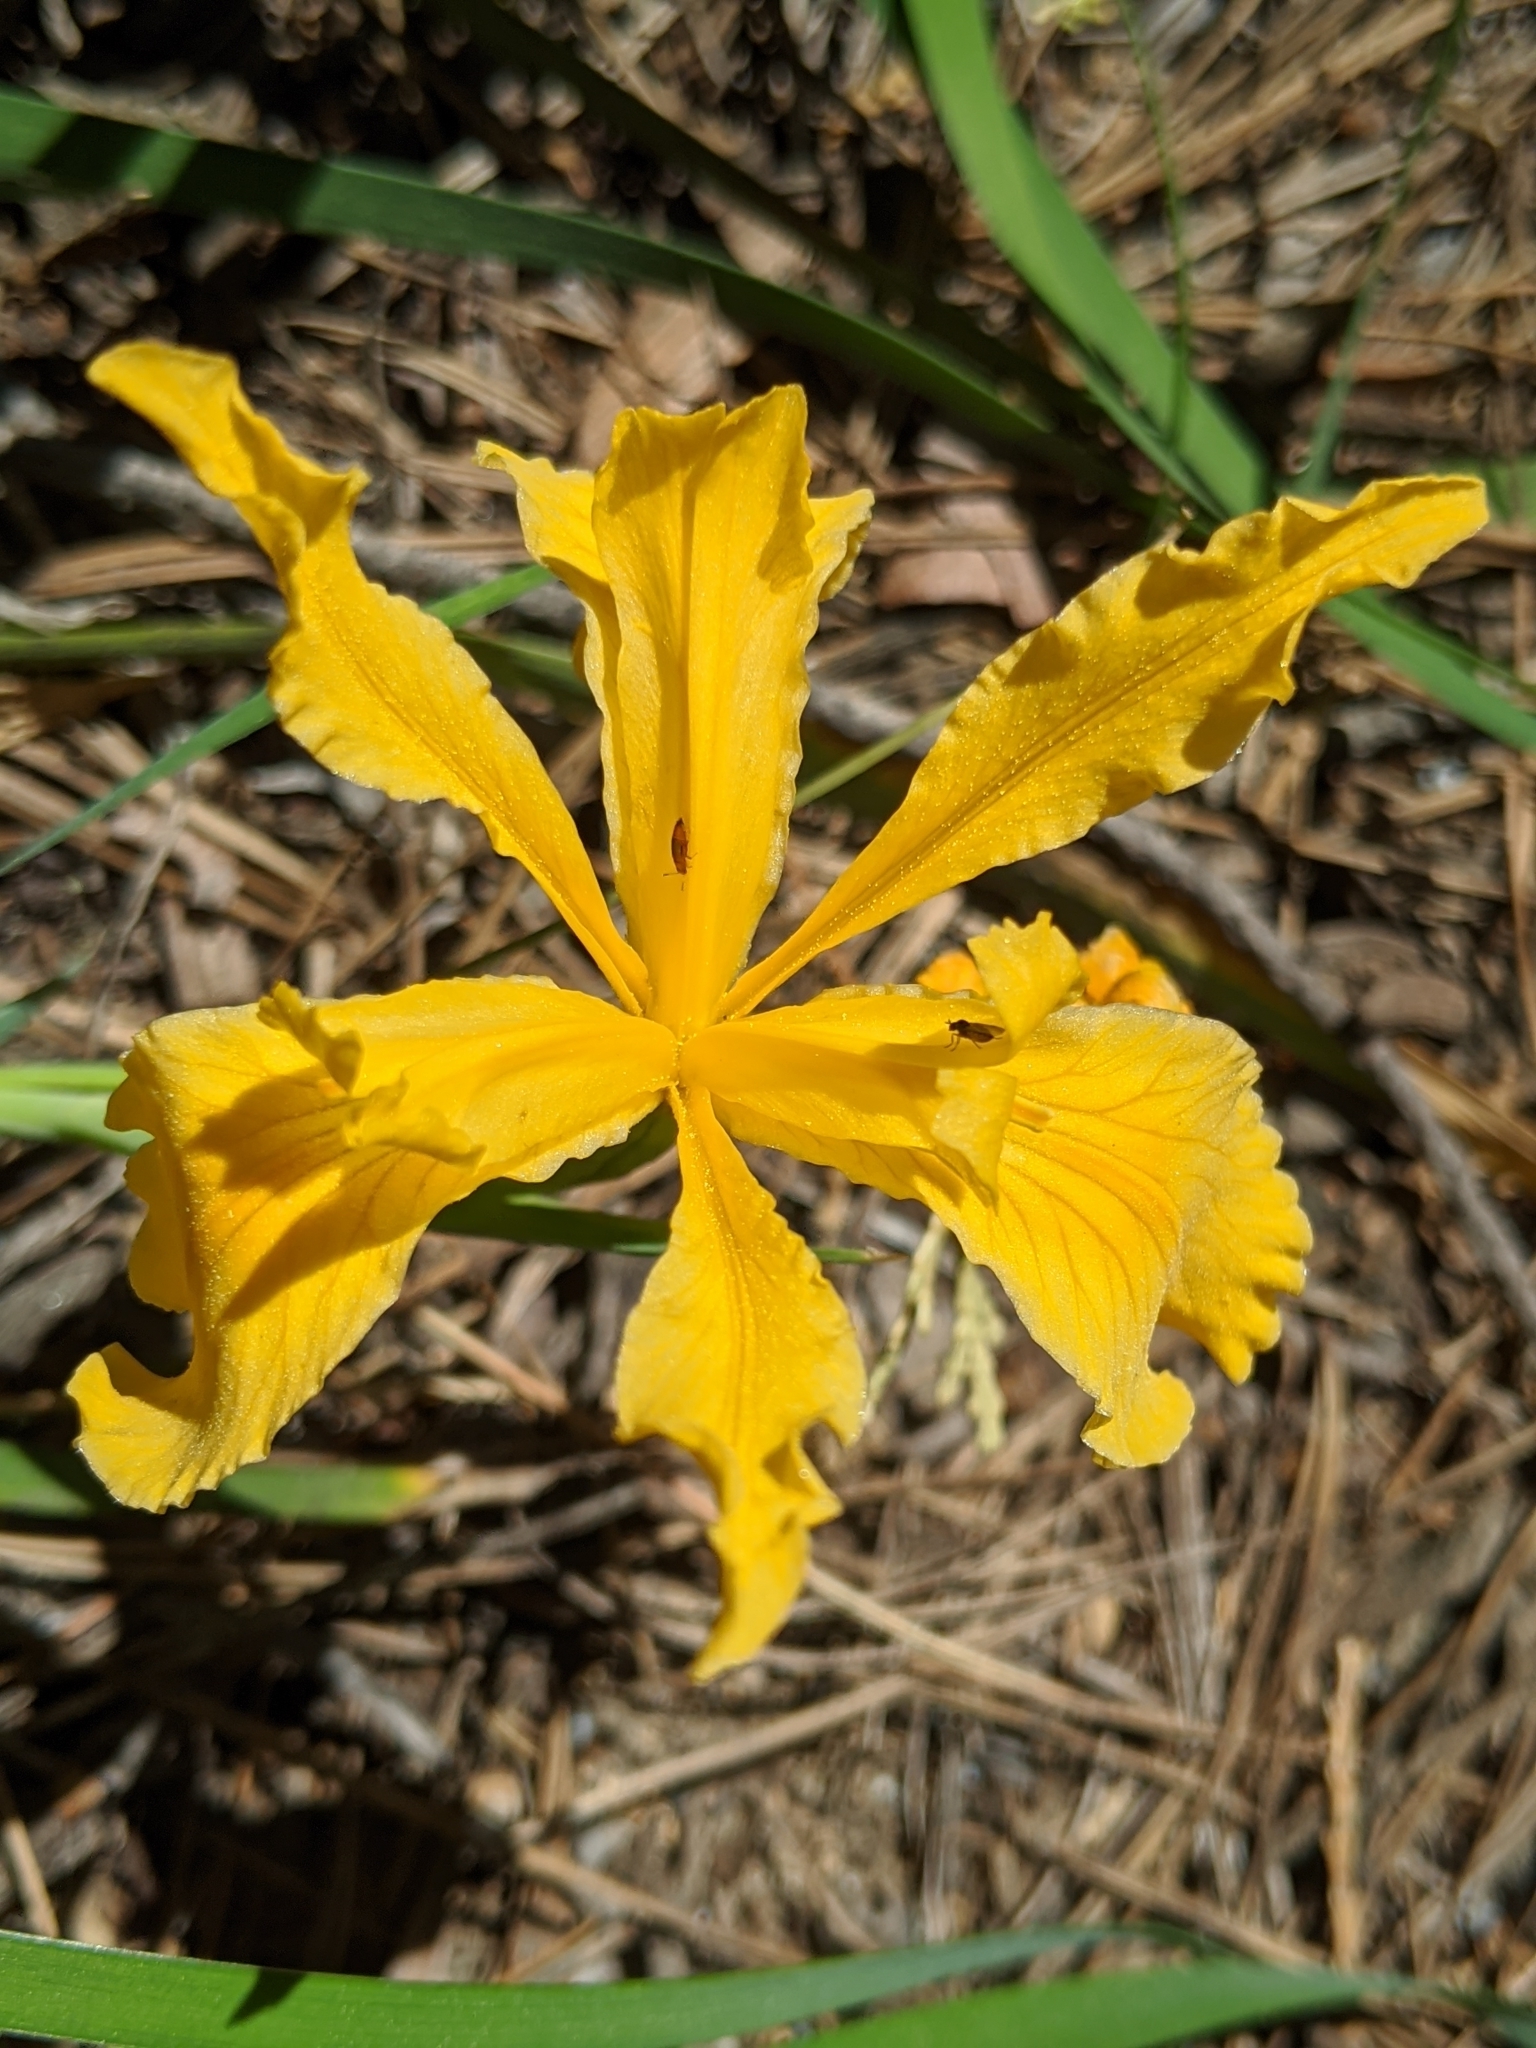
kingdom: Plantae
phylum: Tracheophyta
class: Liliopsida
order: Asparagales
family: Iridaceae
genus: Iris
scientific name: Iris hartwegii
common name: Sierra iris
